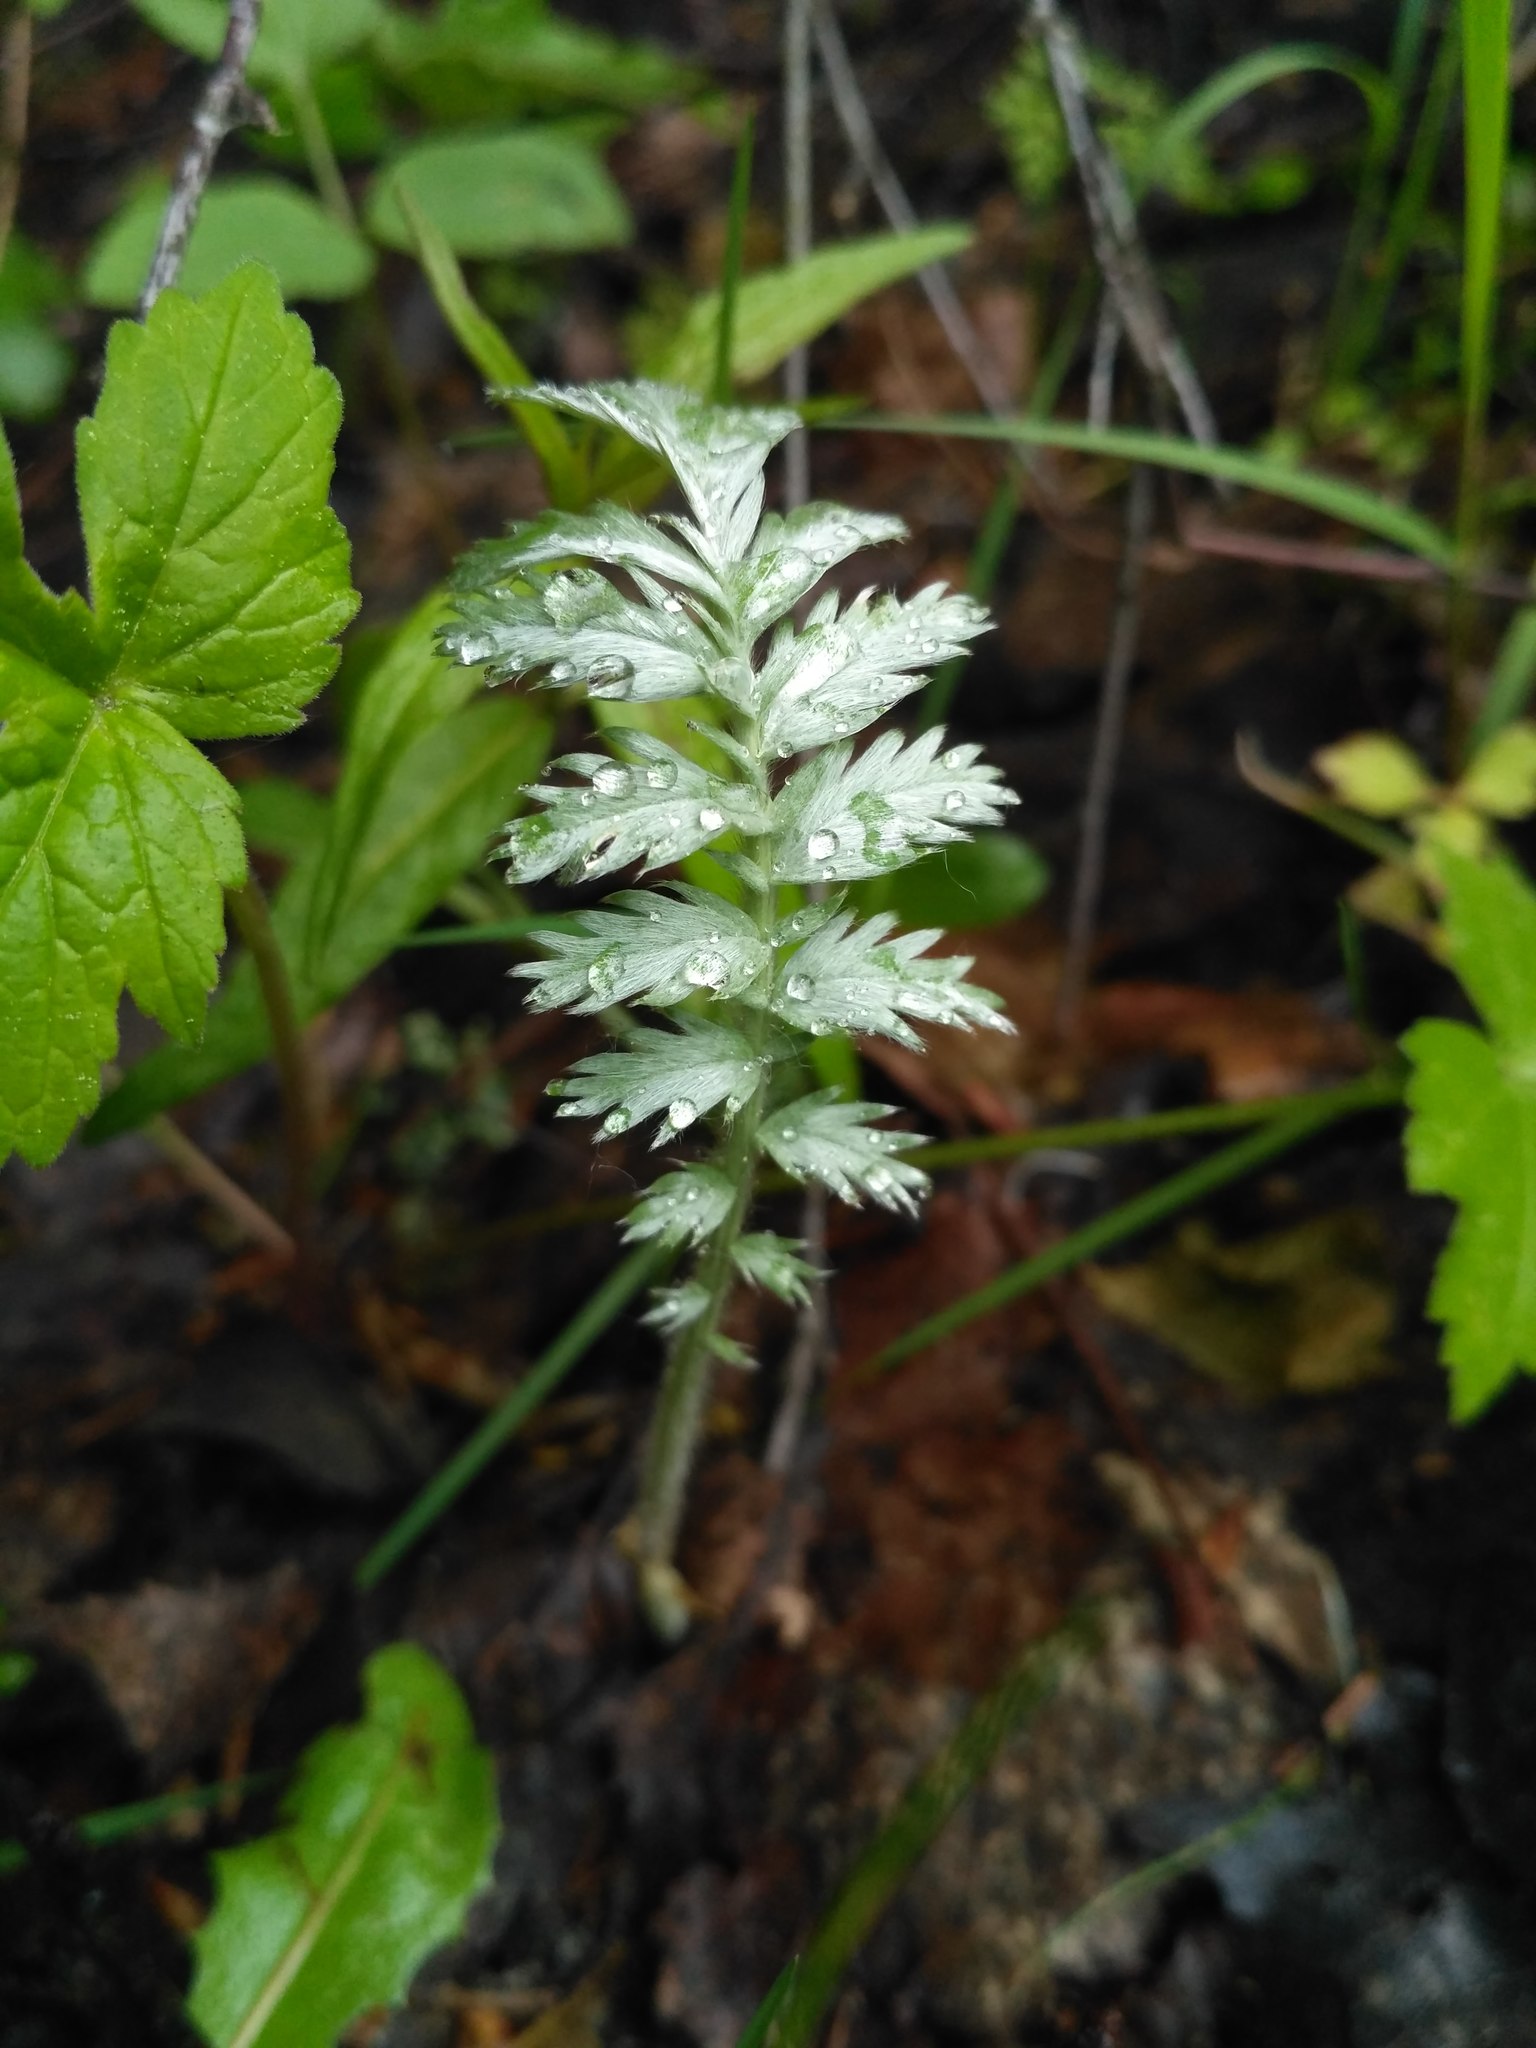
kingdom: Plantae
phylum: Tracheophyta
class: Magnoliopsida
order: Rosales
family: Rosaceae
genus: Argentina
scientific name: Argentina anserina
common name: Common silverweed
